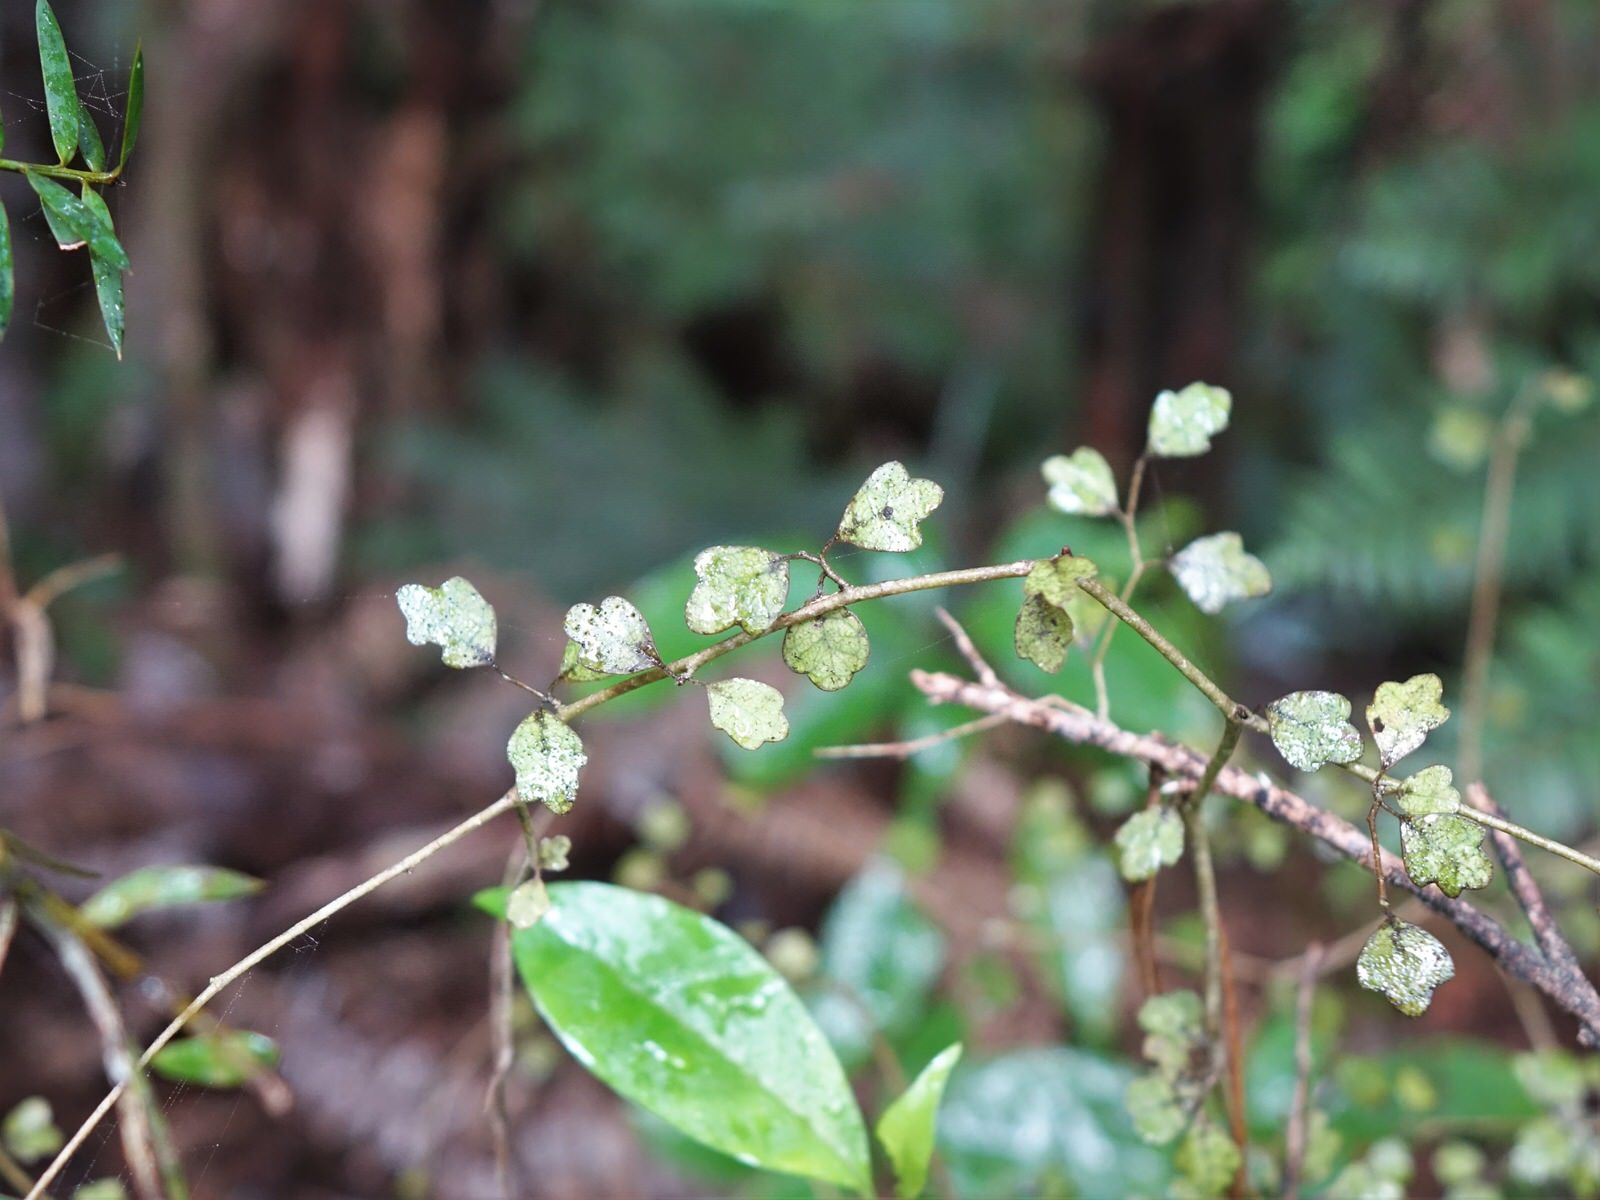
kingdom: Plantae
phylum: Tracheophyta
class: Magnoliopsida
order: Apiales
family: Pennantiaceae
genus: Pennantia
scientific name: Pennantia corymbosa
